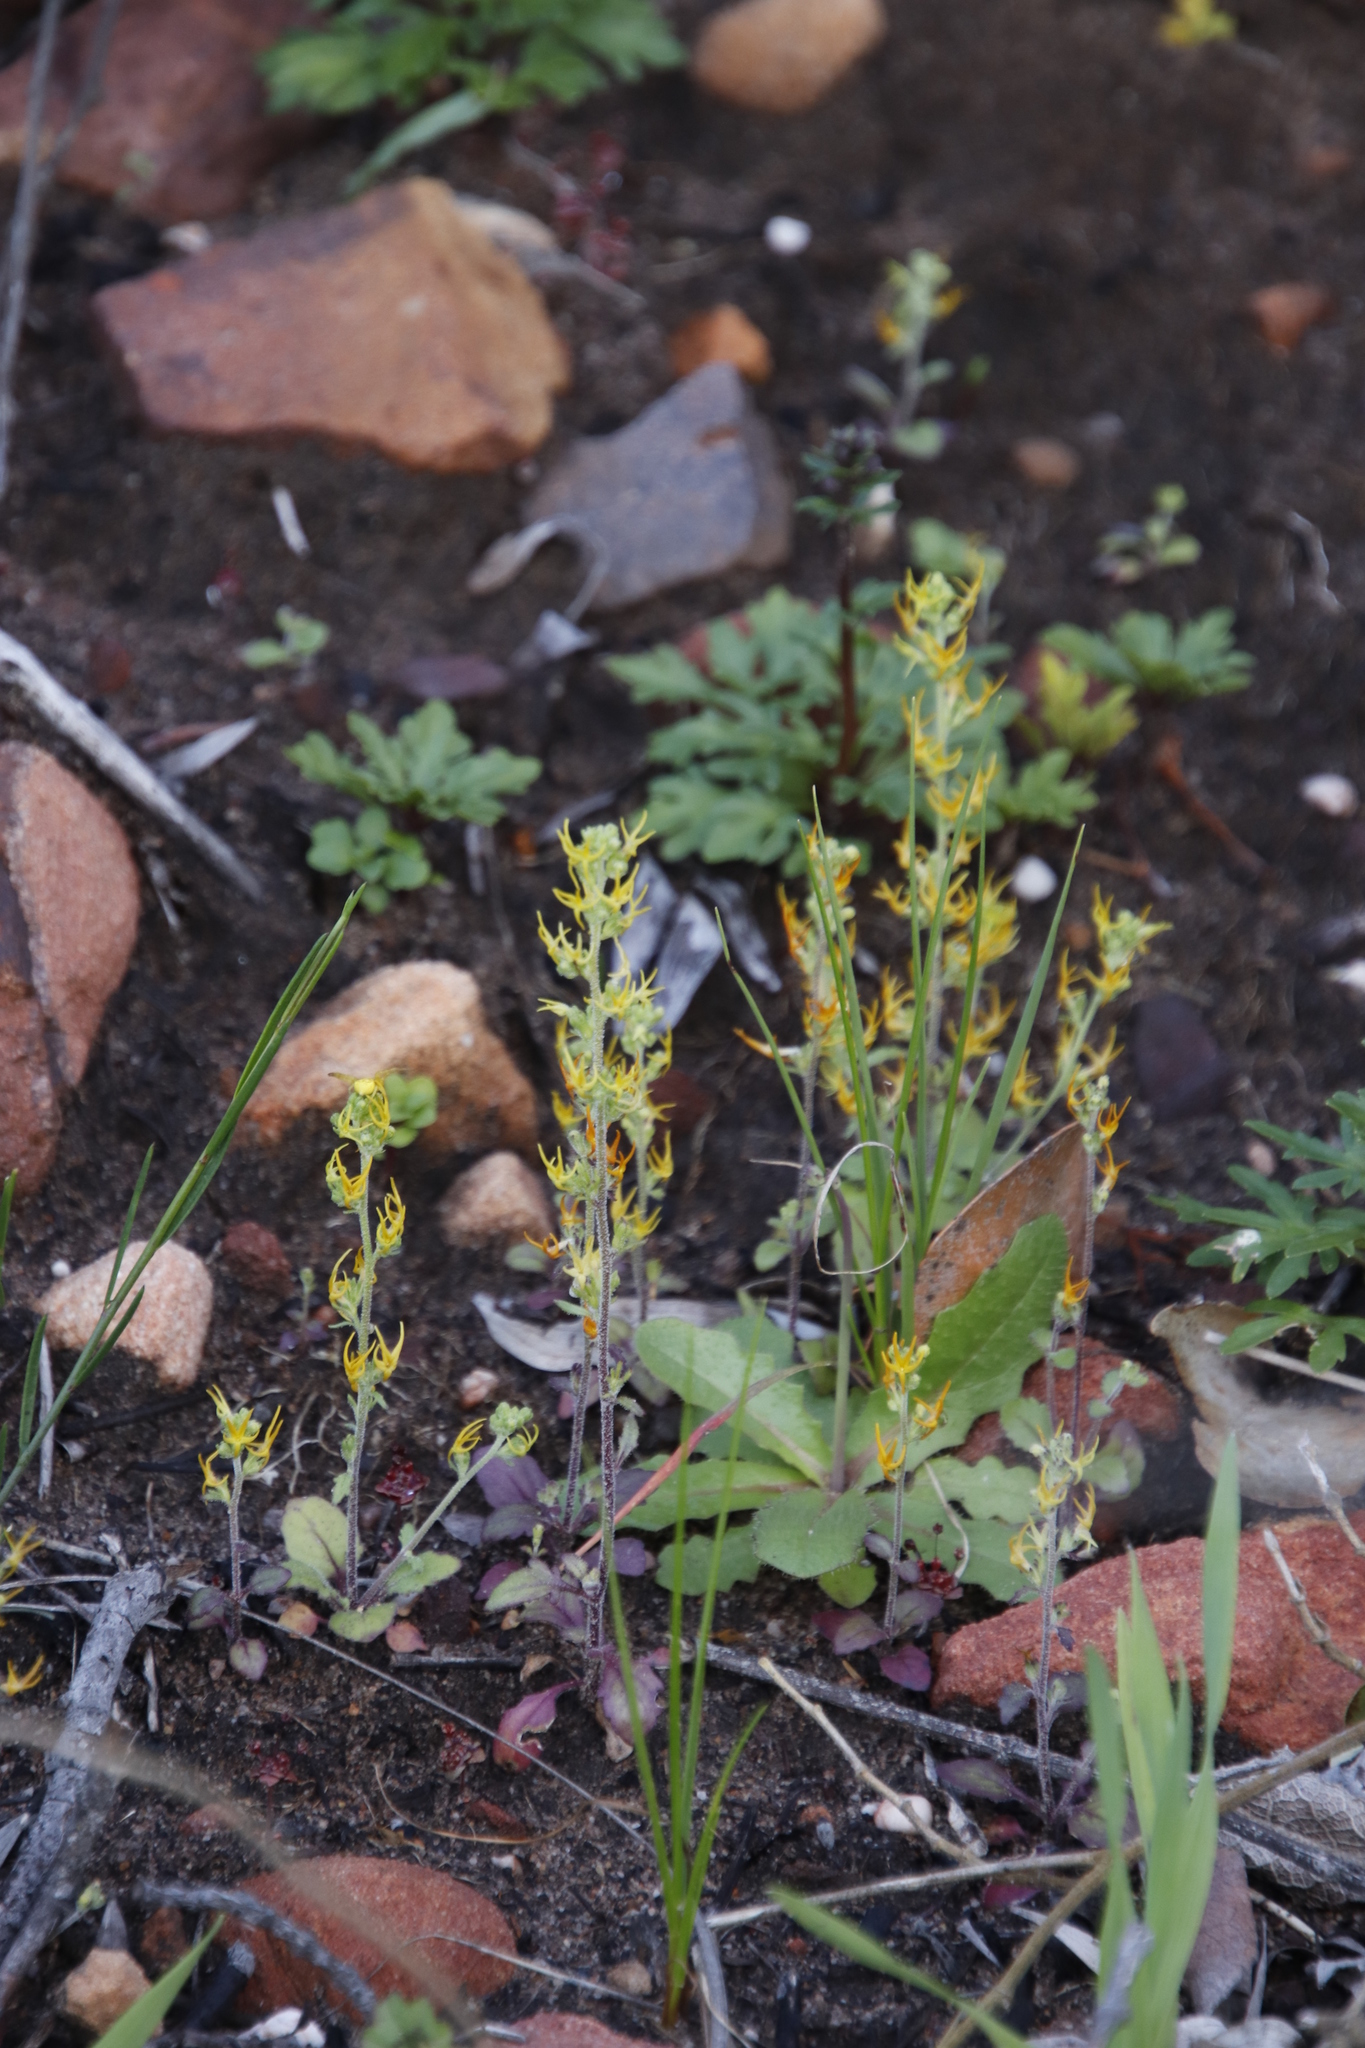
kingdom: Plantae
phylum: Tracheophyta
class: Magnoliopsida
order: Lamiales
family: Scrophulariaceae
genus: Manulea
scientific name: Manulea cheiranthus
